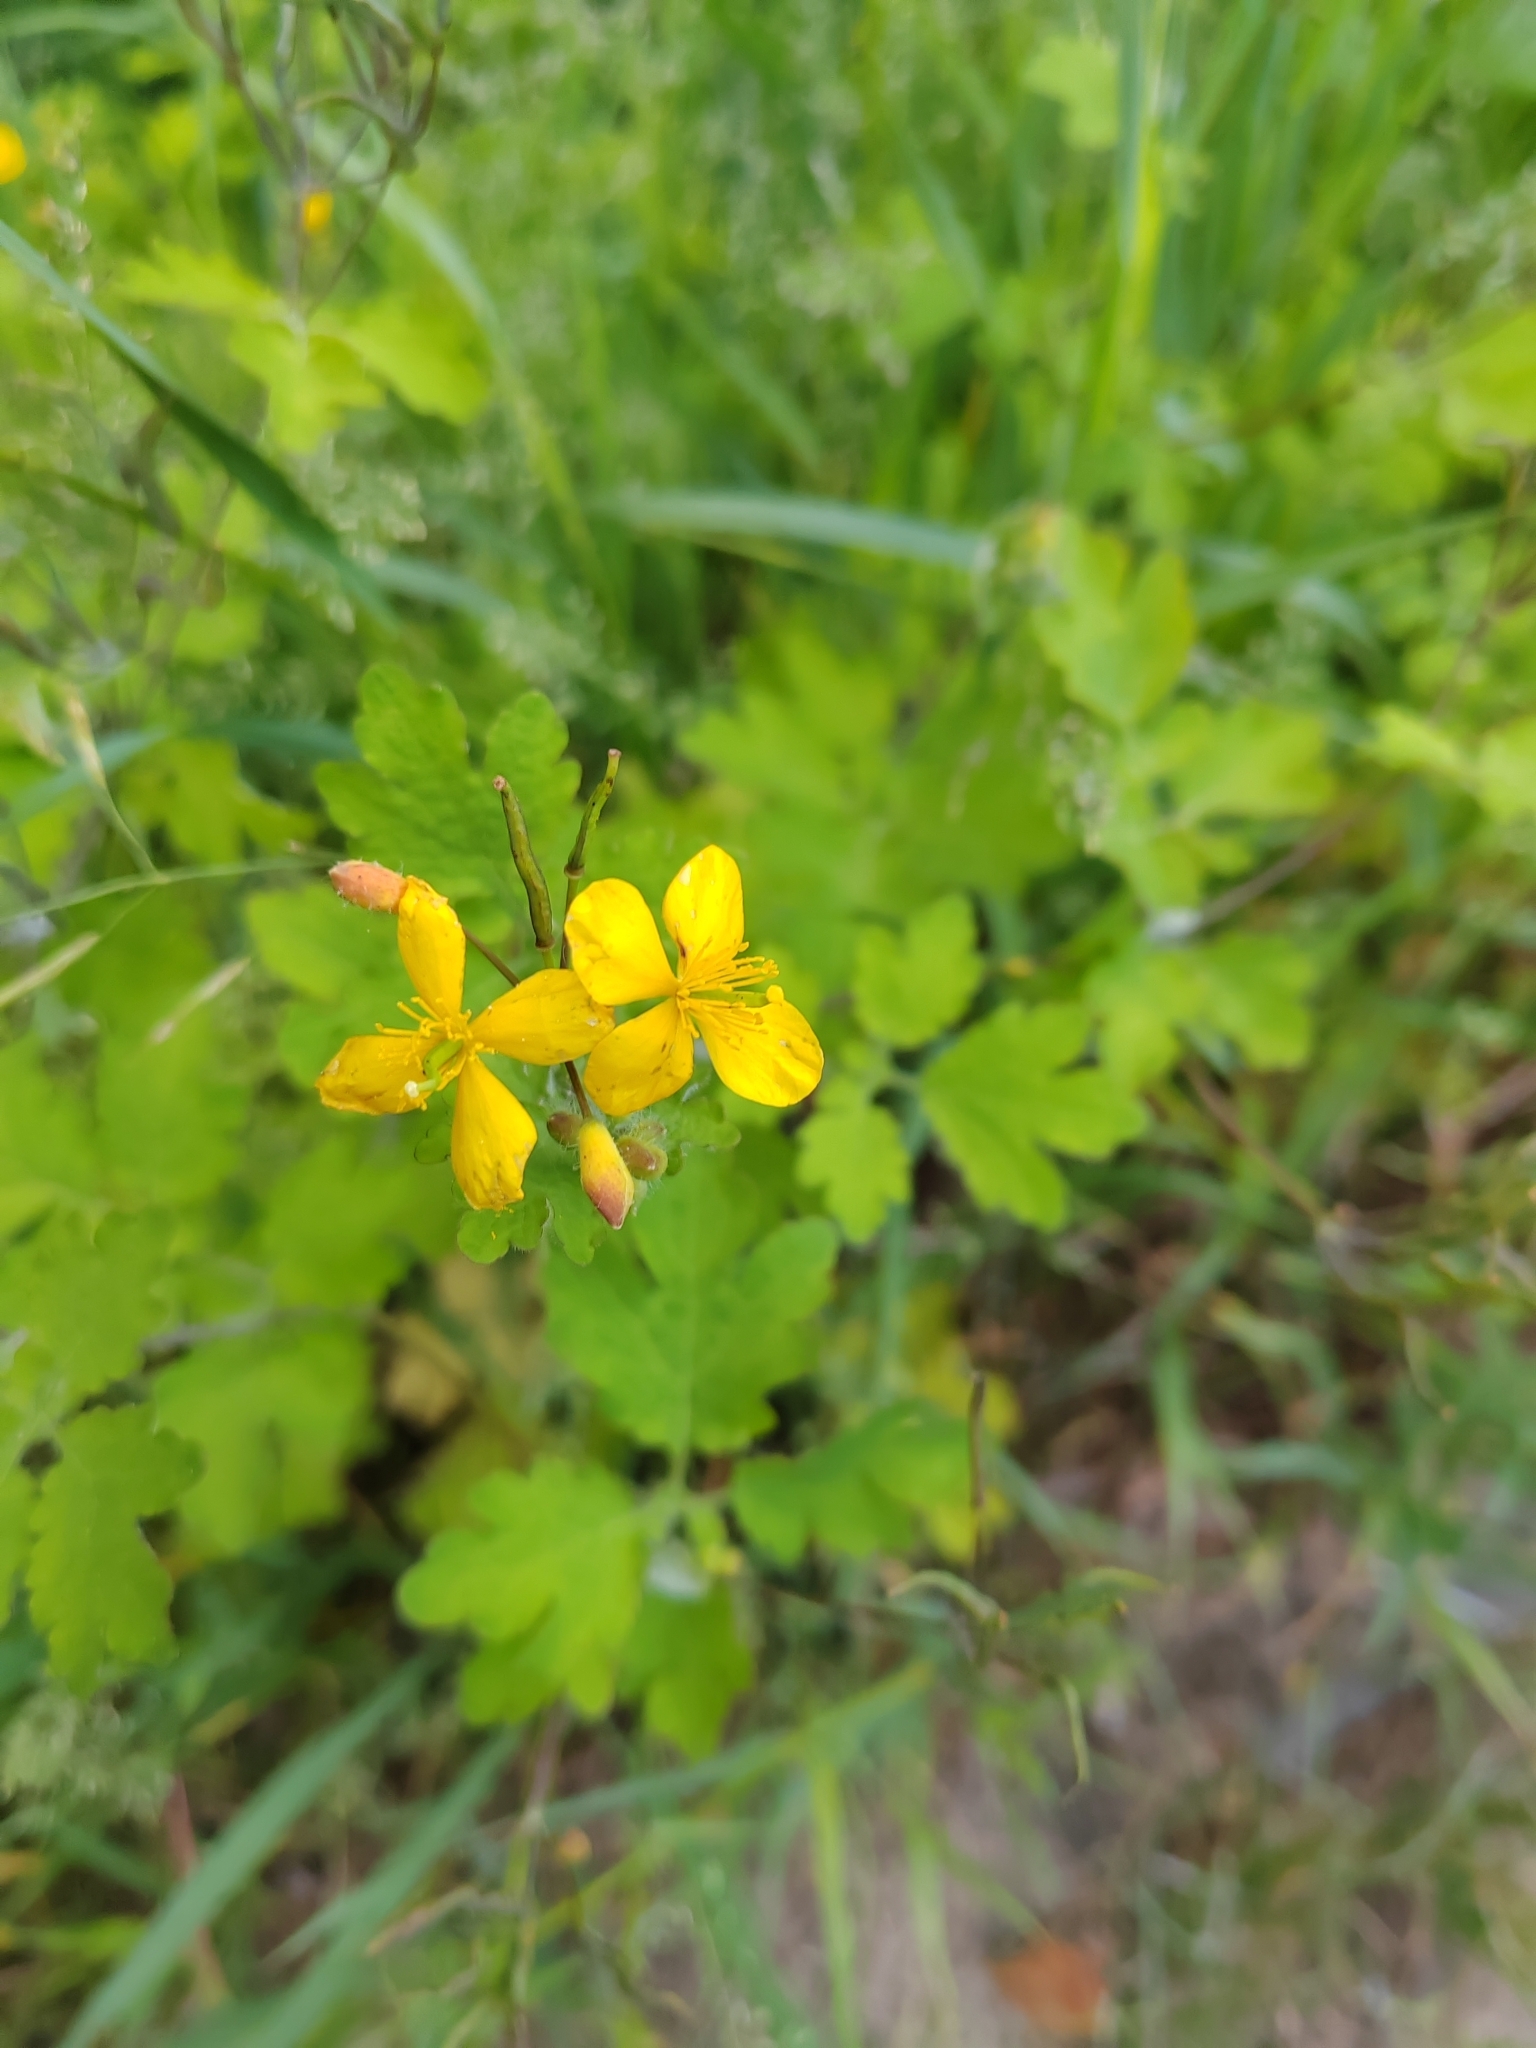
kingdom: Plantae
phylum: Tracheophyta
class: Magnoliopsida
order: Ranunculales
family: Papaveraceae
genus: Chelidonium
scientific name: Chelidonium majus
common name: Greater celandine
